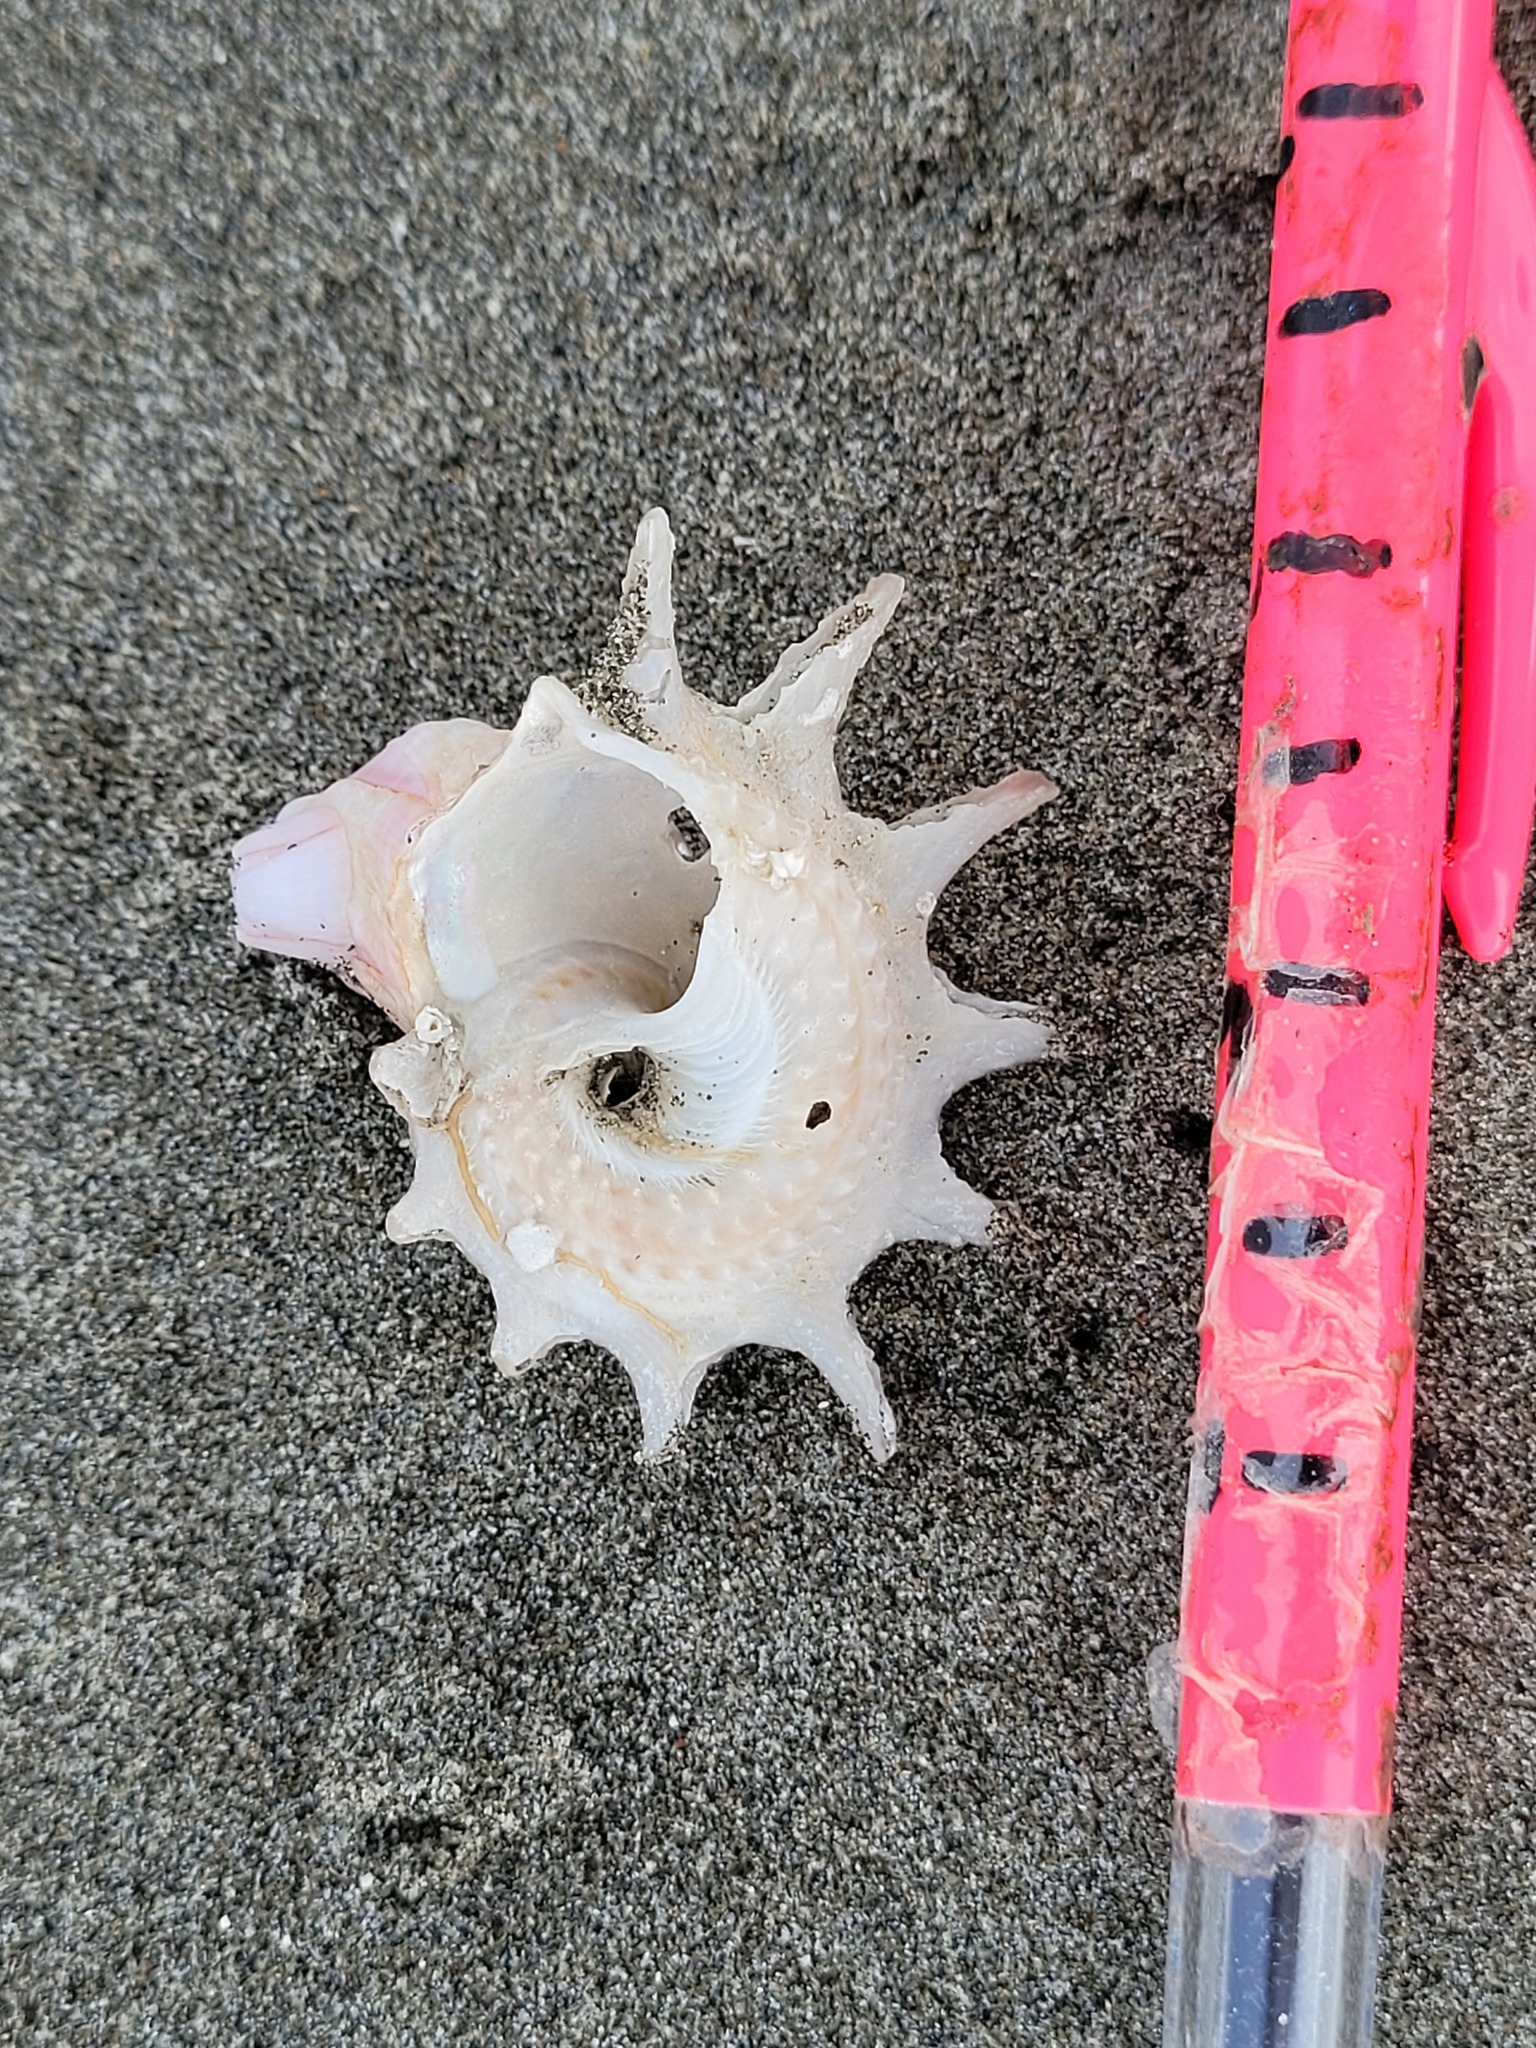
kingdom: Animalia
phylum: Mollusca
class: Gastropoda
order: Trochida
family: Turbinidae
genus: Astraea
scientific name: Astraea heliotropium
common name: Sun shell
